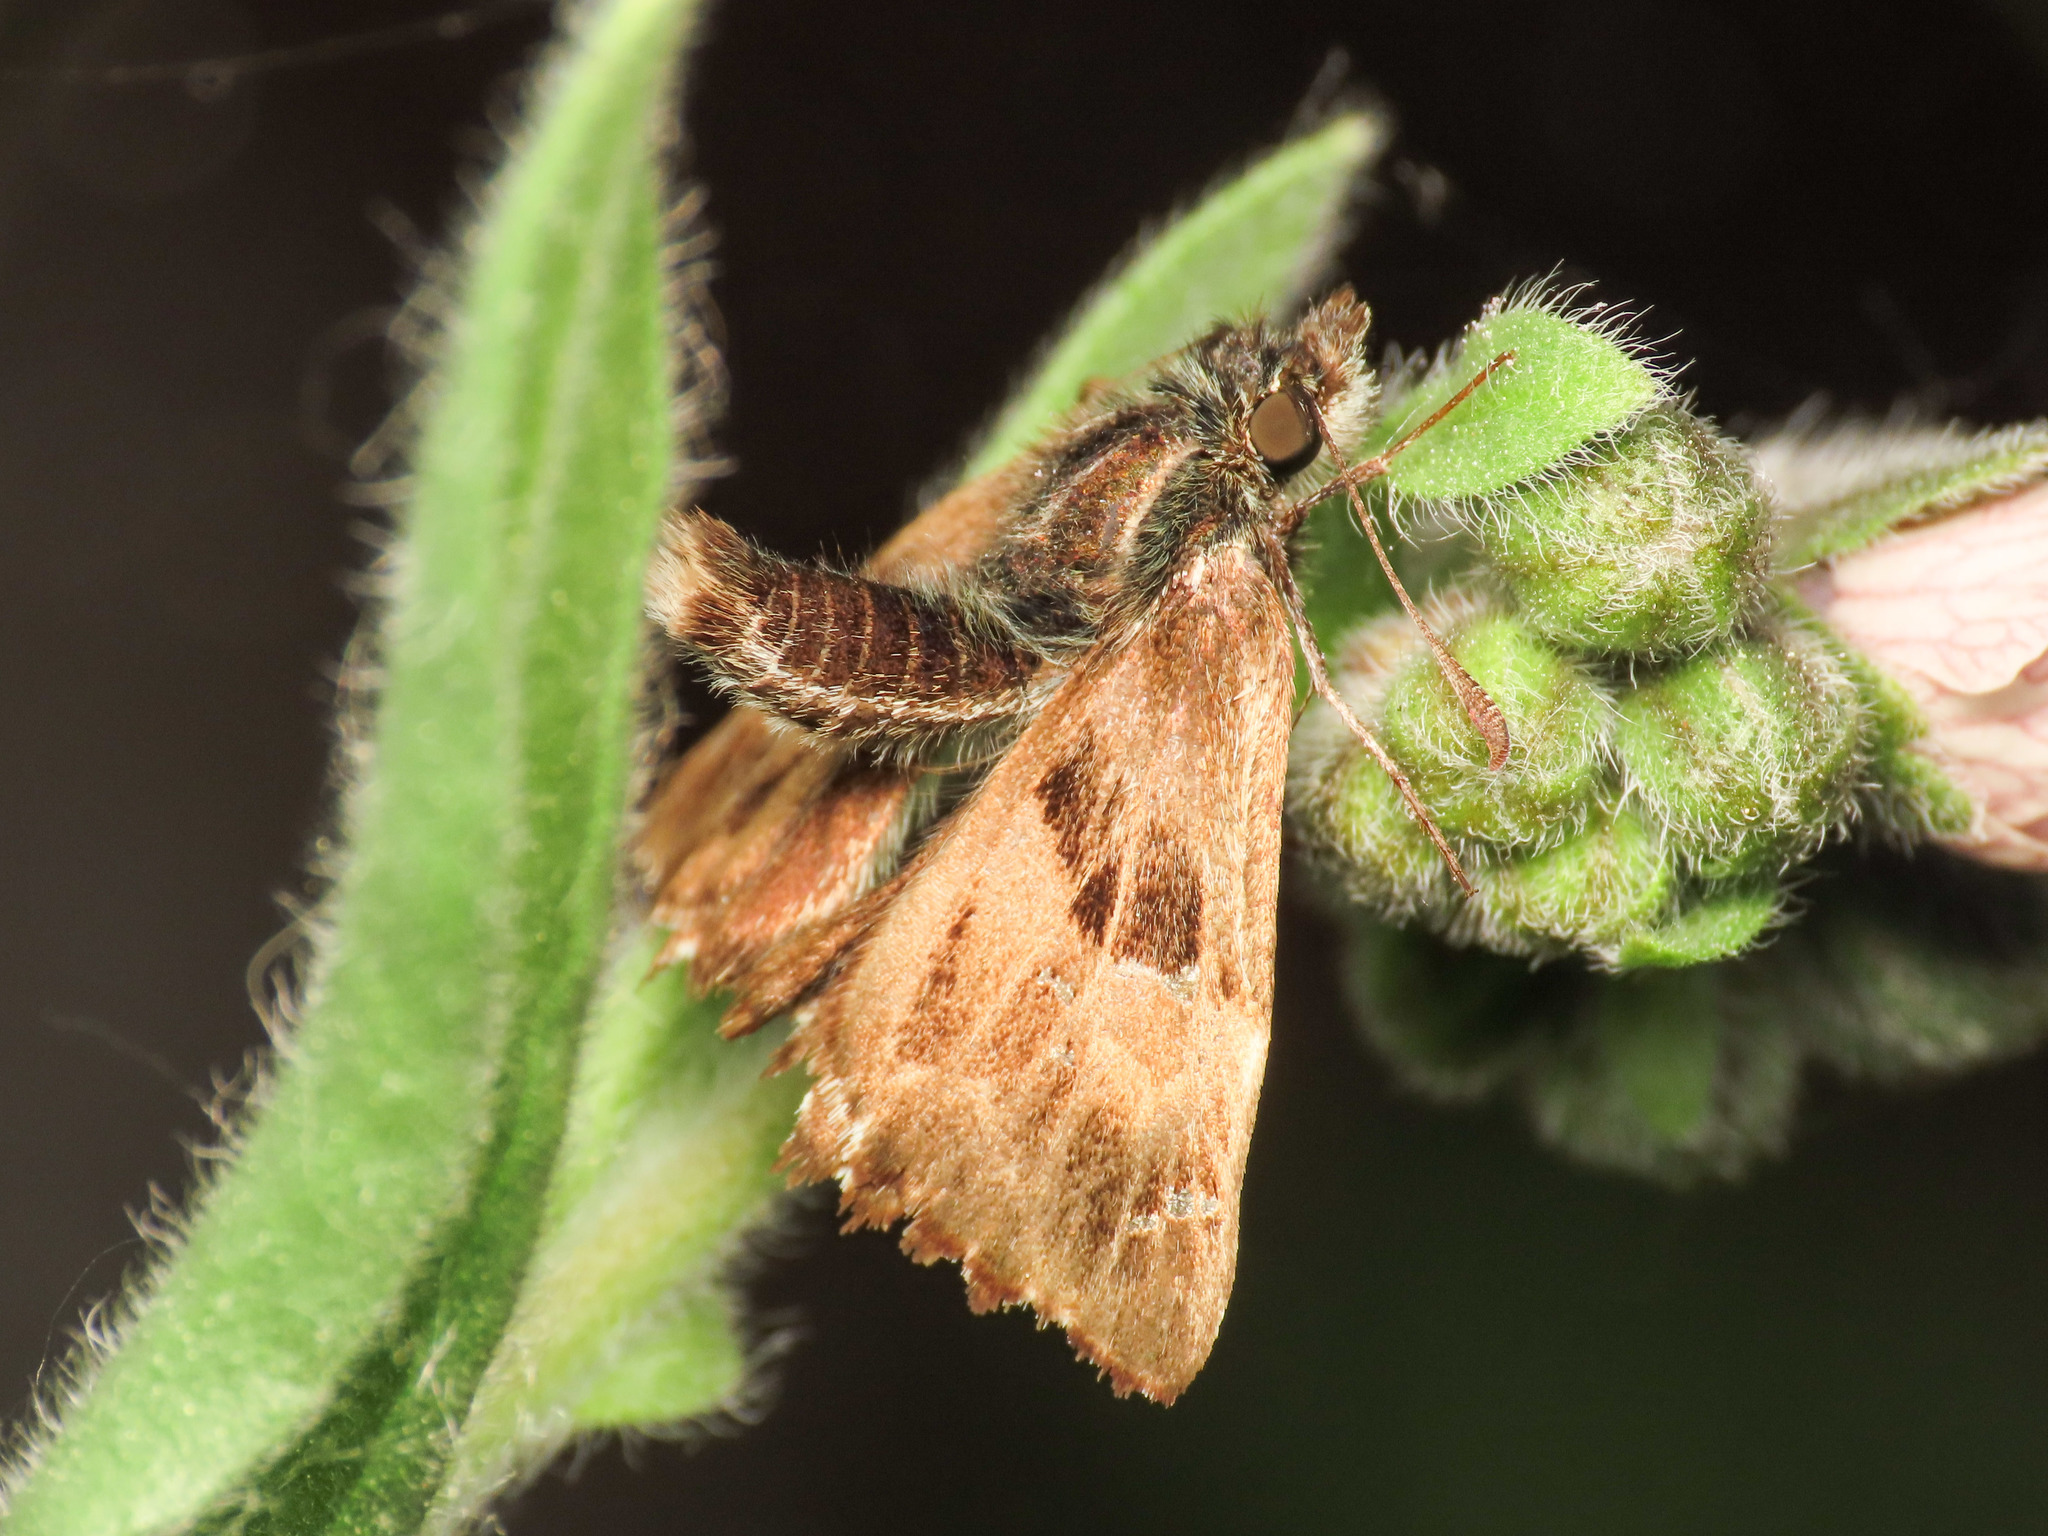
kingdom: Animalia
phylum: Arthropoda
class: Insecta
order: Lepidoptera
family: Hesperiidae
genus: Carcharodus
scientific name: Carcharodus alceae
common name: Mallow skipper
